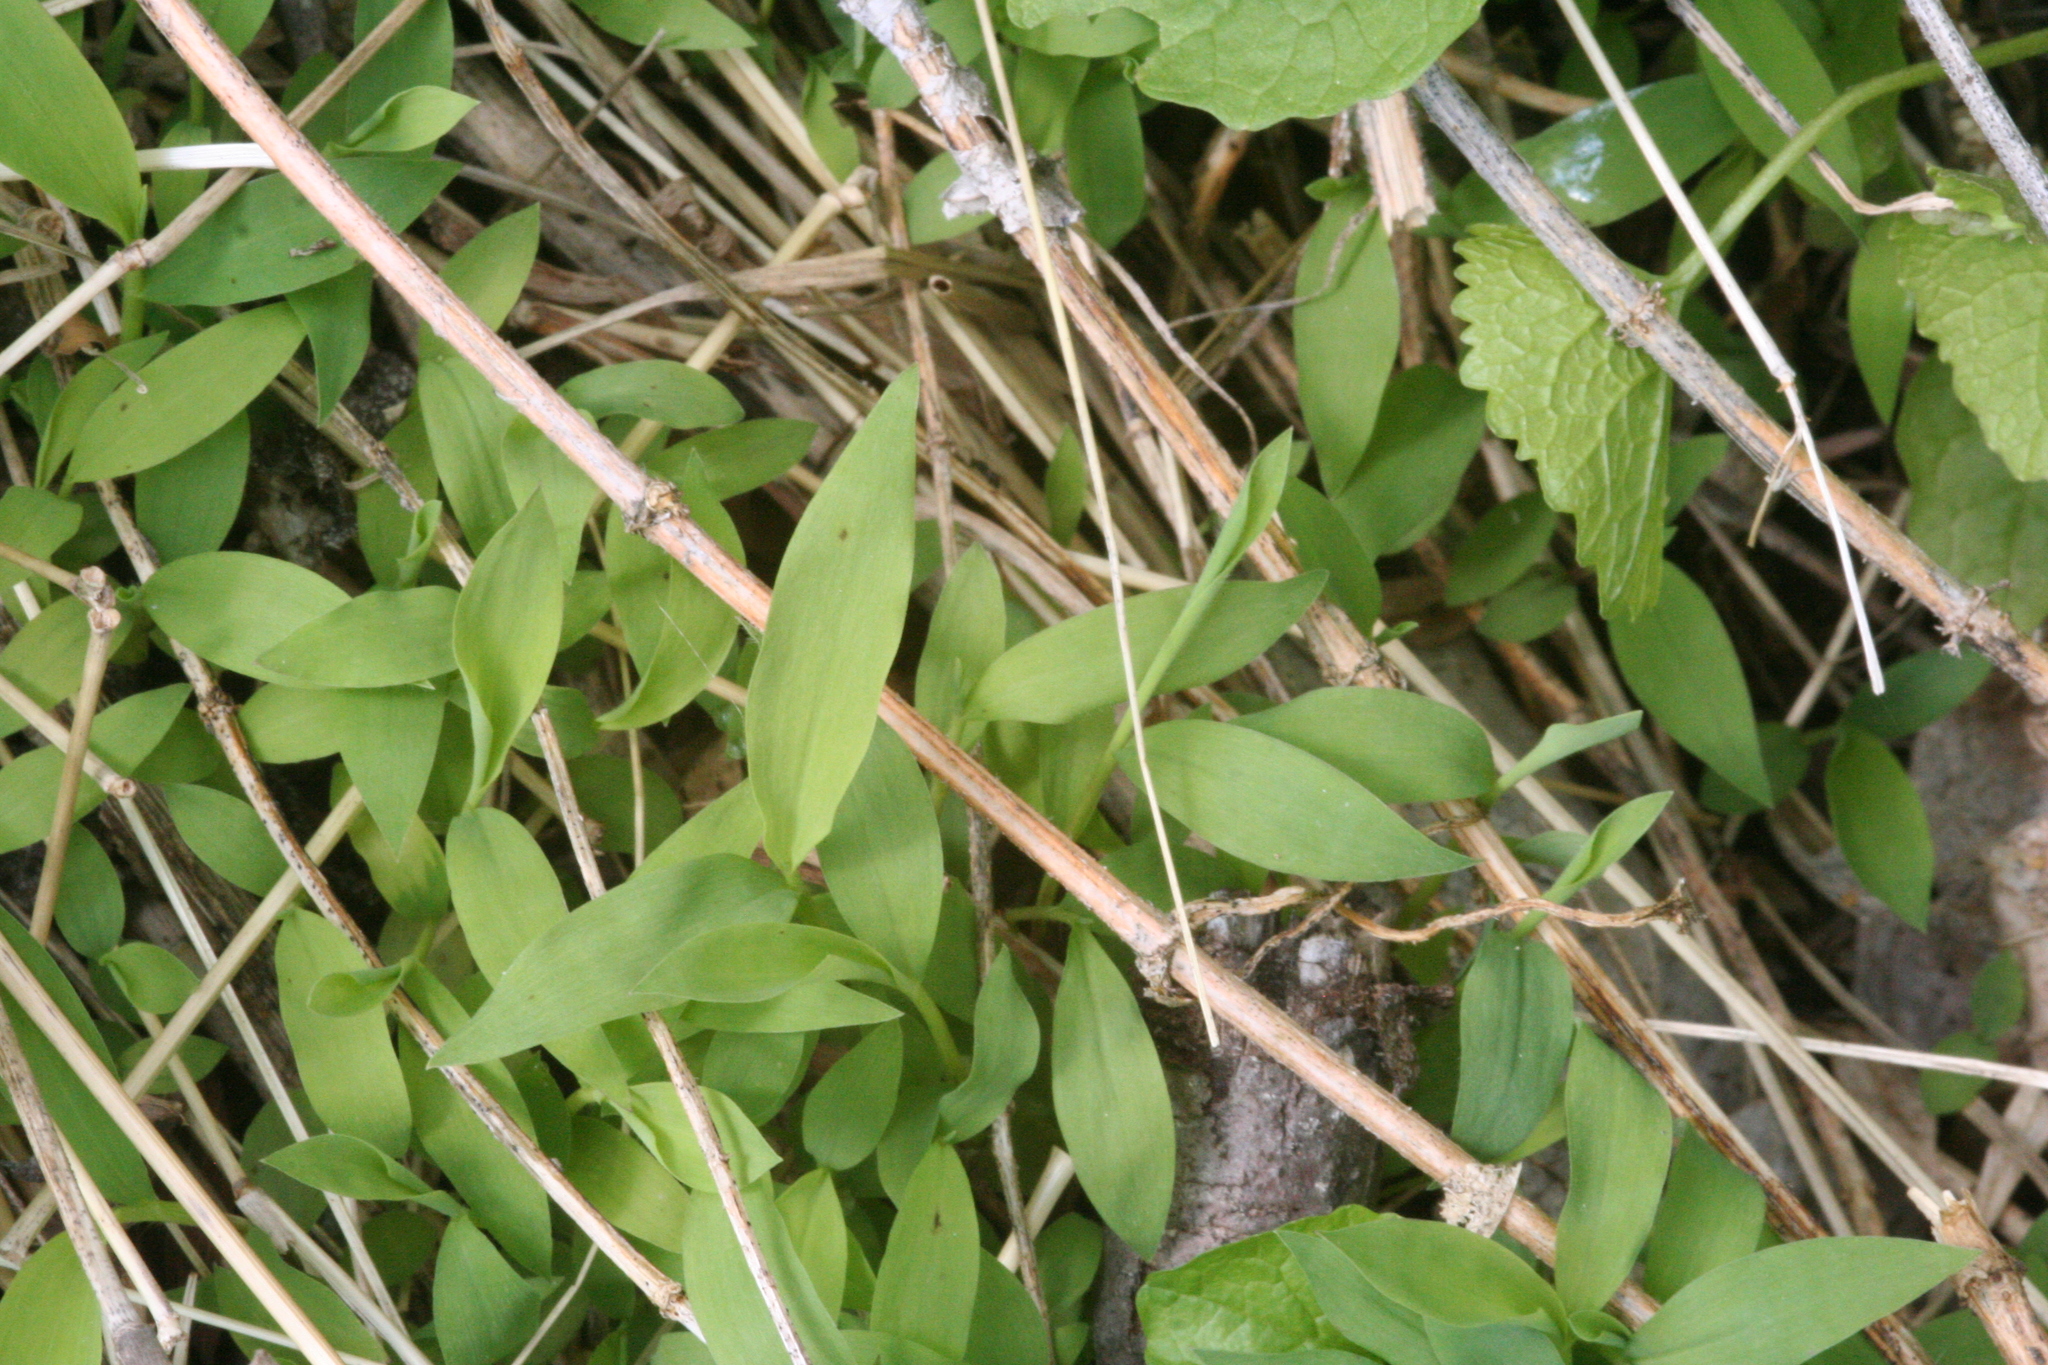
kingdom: Plantae
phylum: Tracheophyta
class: Liliopsida
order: Poales
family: Poaceae
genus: Microstegium
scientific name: Microstegium vimineum
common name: Japanese stiltgrass
